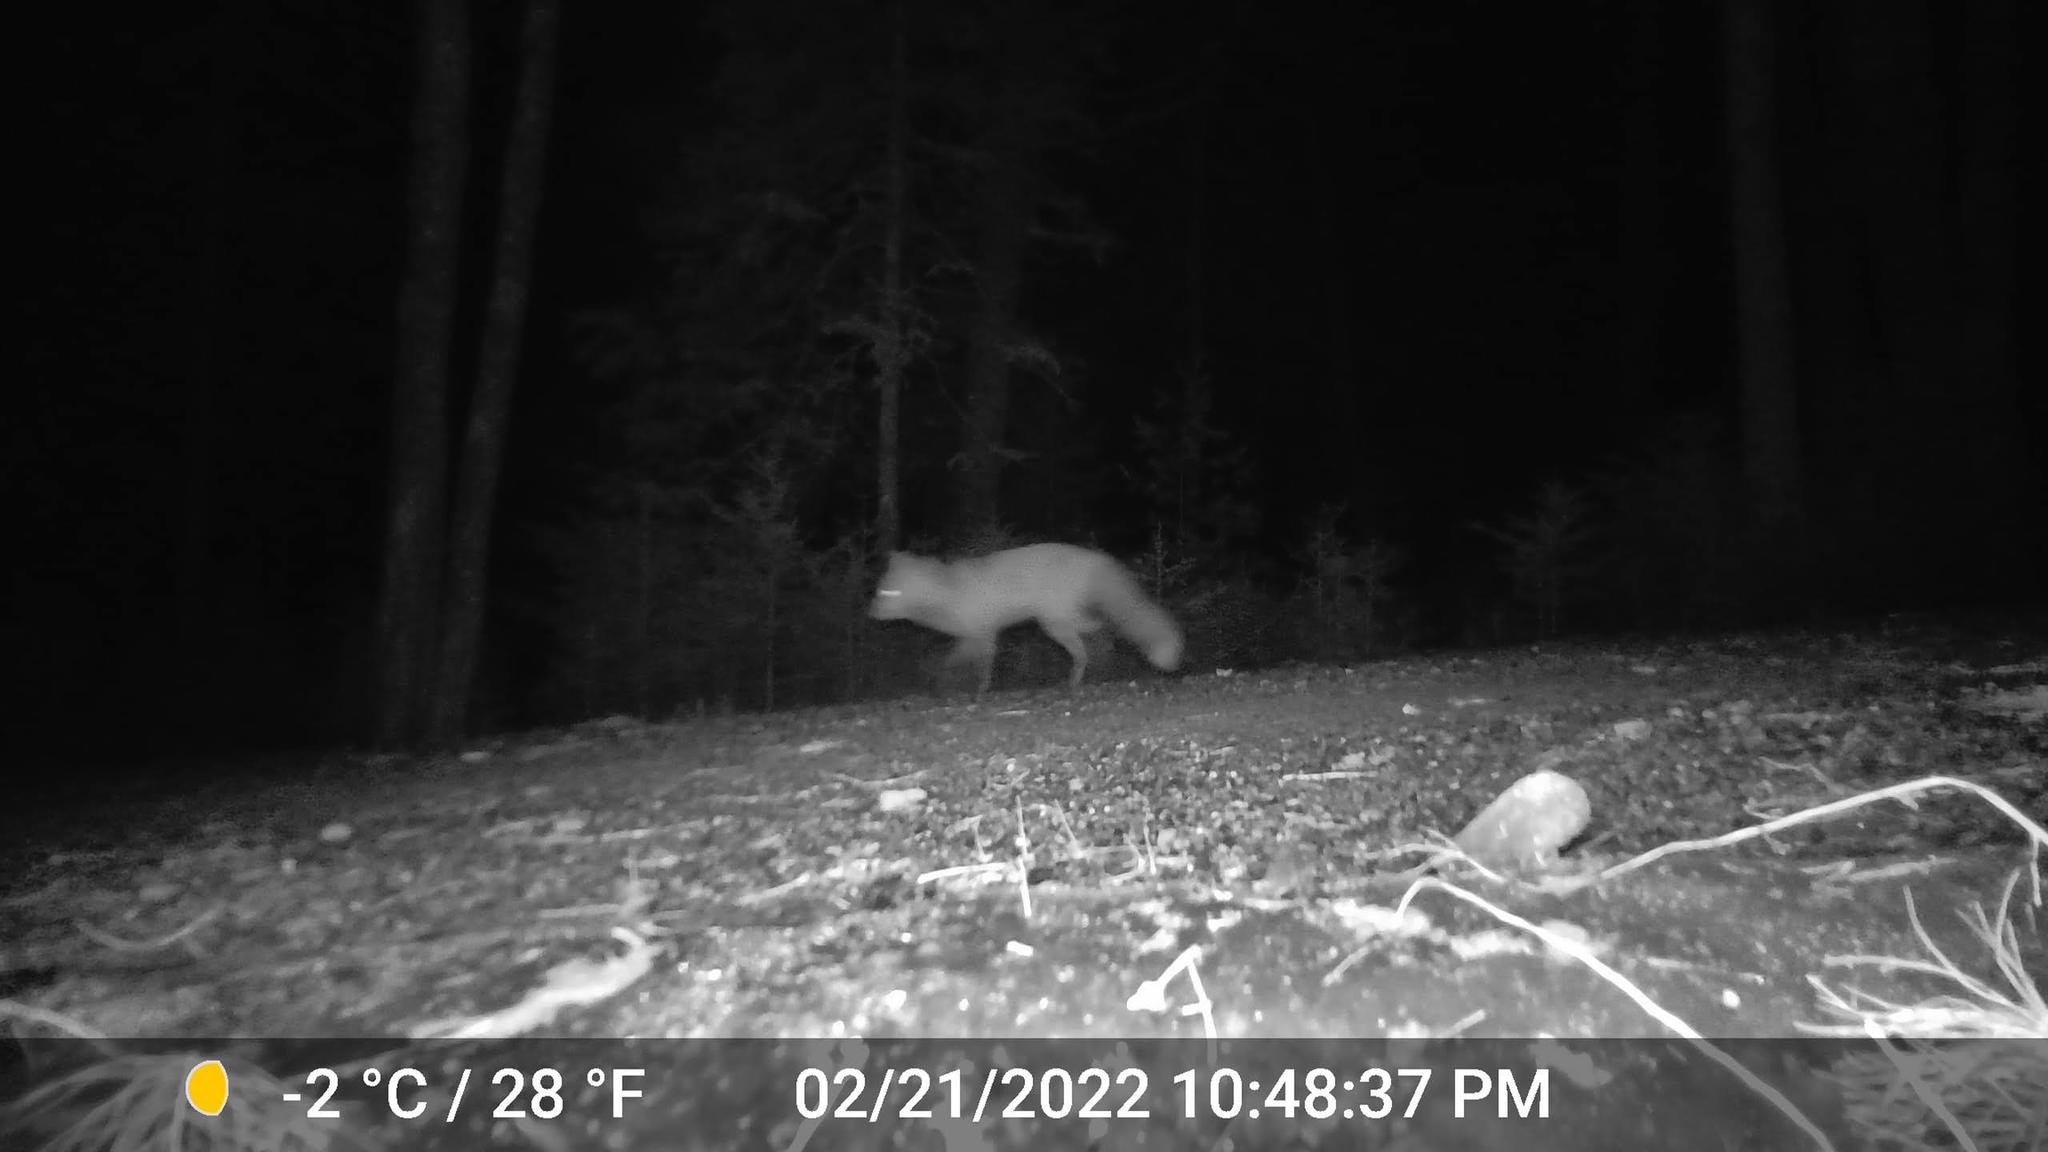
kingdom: Animalia
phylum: Chordata
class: Mammalia
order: Carnivora
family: Canidae
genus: Vulpes
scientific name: Vulpes vulpes
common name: Red fox
